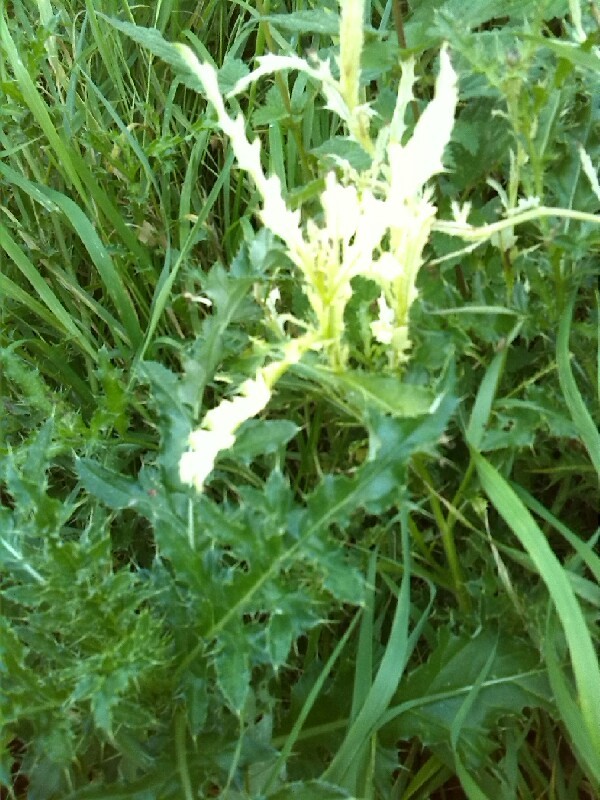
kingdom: Bacteria
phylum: Proteobacteria
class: Gammaproteobacteria
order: Pseudomonadales
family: Pseudomonadaceae
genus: Pseudomonas
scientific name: Pseudomonas syringae
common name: Bacterial speck
